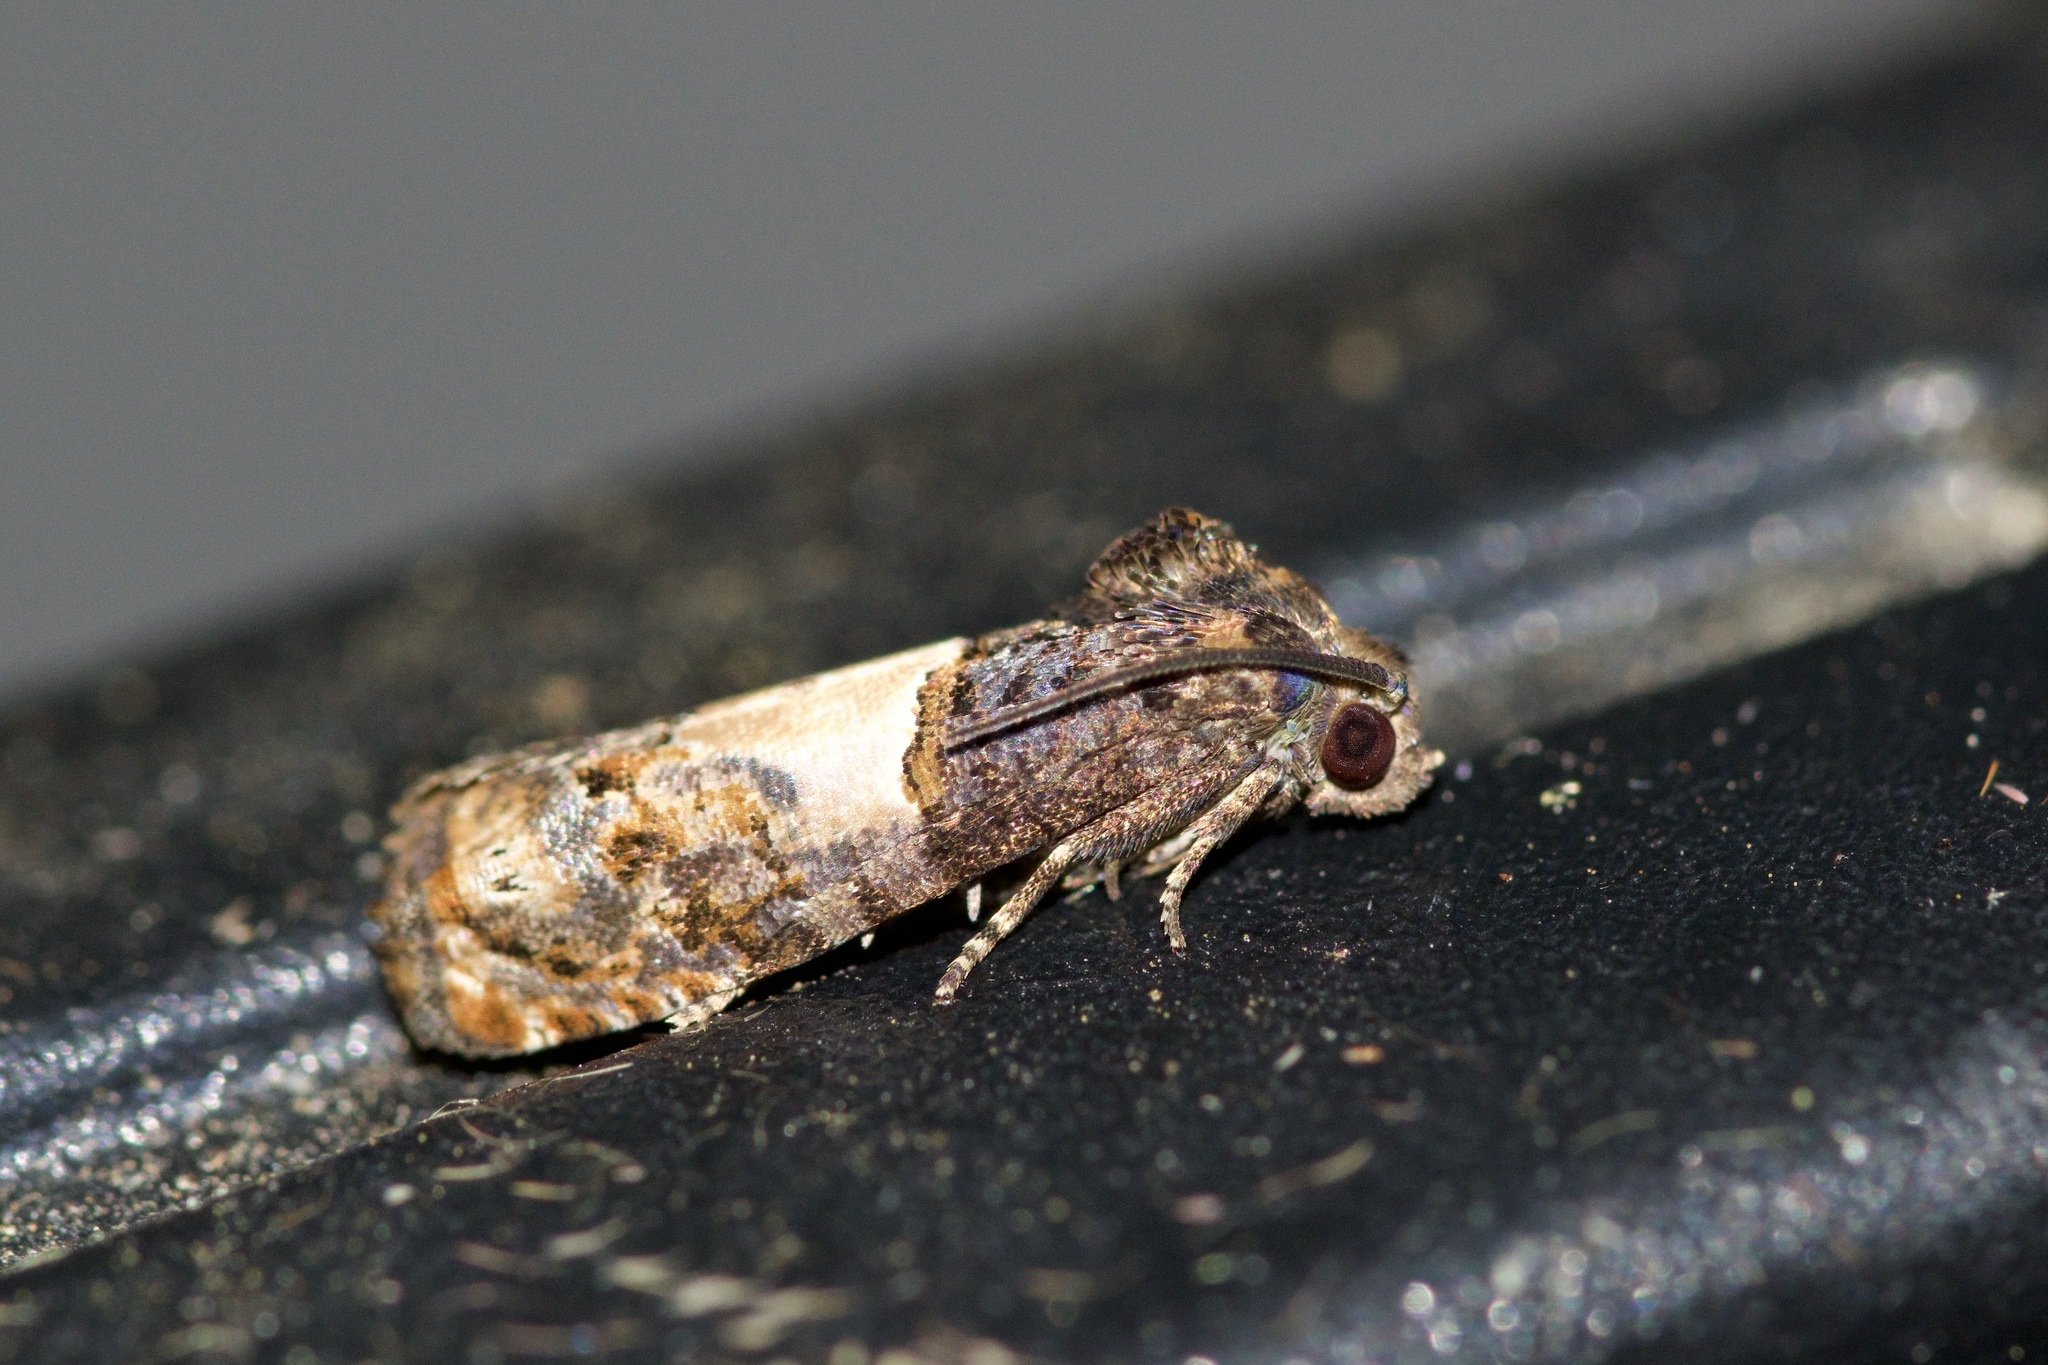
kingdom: Animalia
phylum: Arthropoda
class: Insecta
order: Lepidoptera
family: Tortricidae
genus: Epiblema
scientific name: Epiblema glenni
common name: Glenn's epiblema
